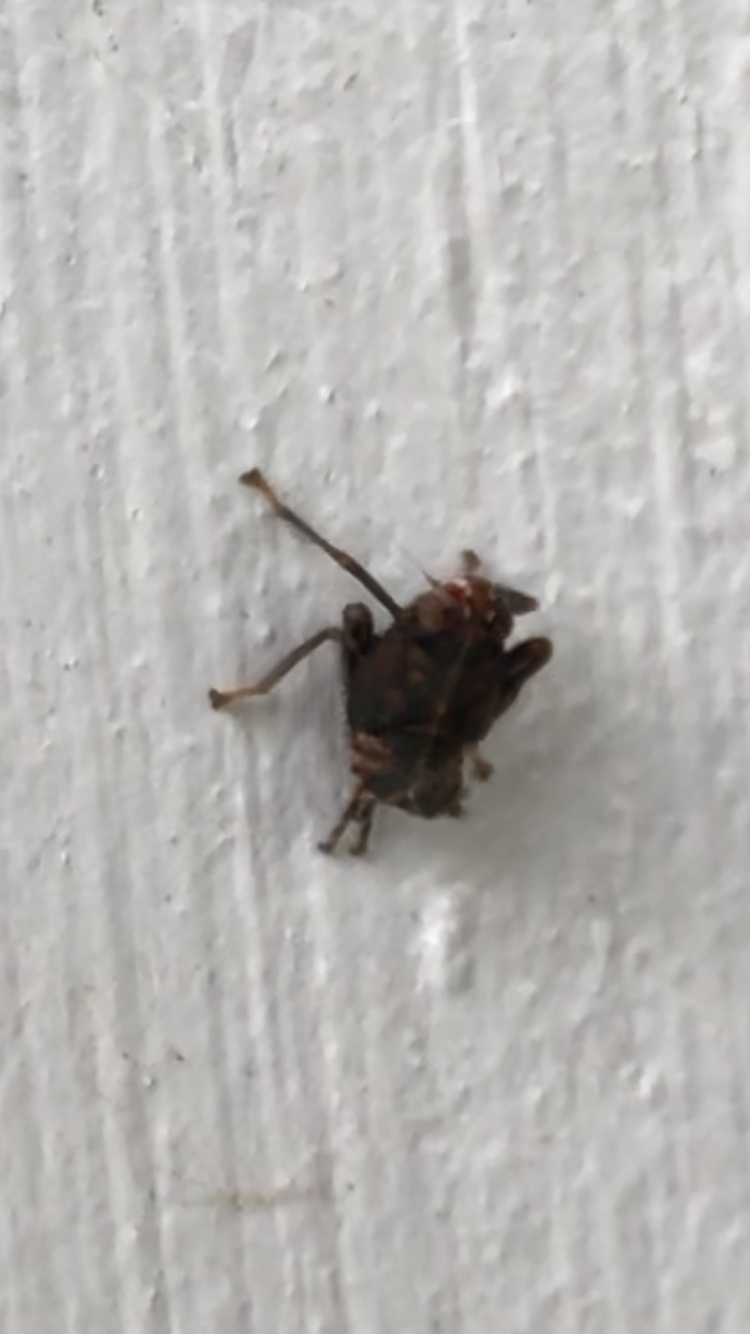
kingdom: Animalia
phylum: Arthropoda
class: Insecta
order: Hemiptera
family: Cicadellidae
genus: Jikradia
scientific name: Jikradia olitoria
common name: Coppery leafhopper
